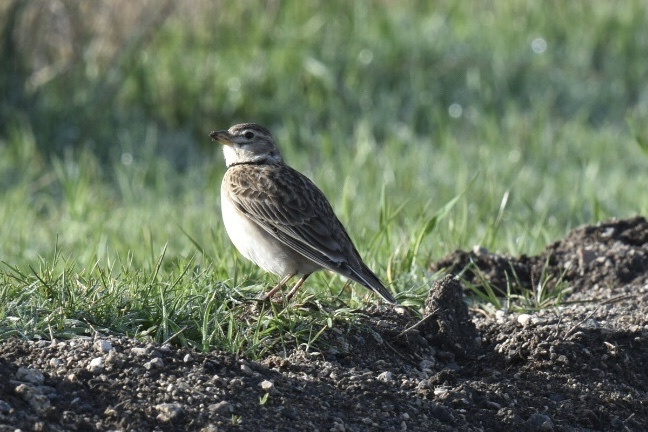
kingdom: Animalia
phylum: Chordata
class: Aves
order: Passeriformes
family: Alaudidae
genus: Melanocorypha
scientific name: Melanocorypha calandra
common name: Calandra lark
